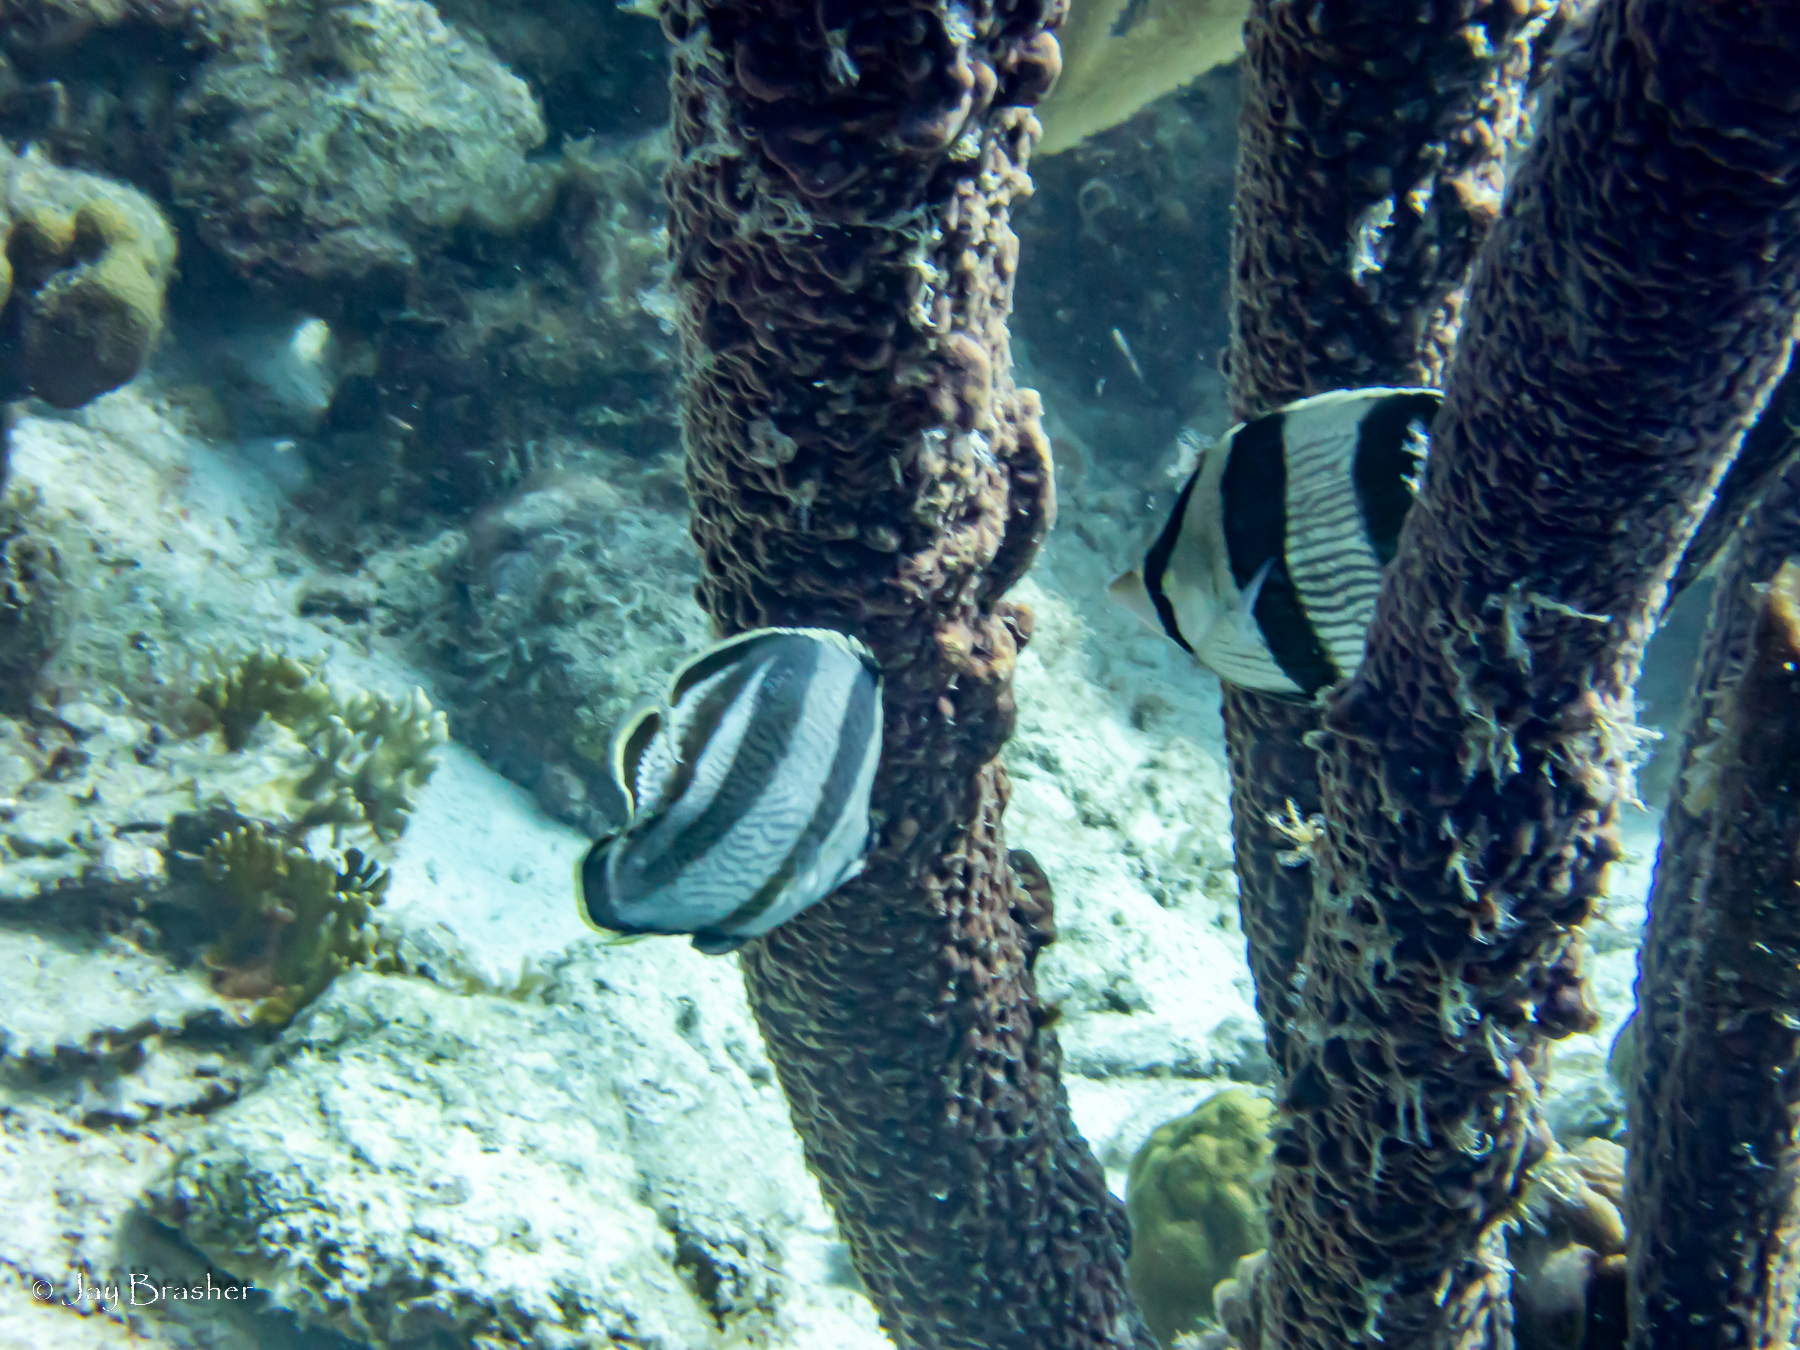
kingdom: Animalia
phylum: Chordata
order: Perciformes
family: Chaetodontidae
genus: Chaetodon
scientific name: Chaetodon striatus
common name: Banded butterflyfish
